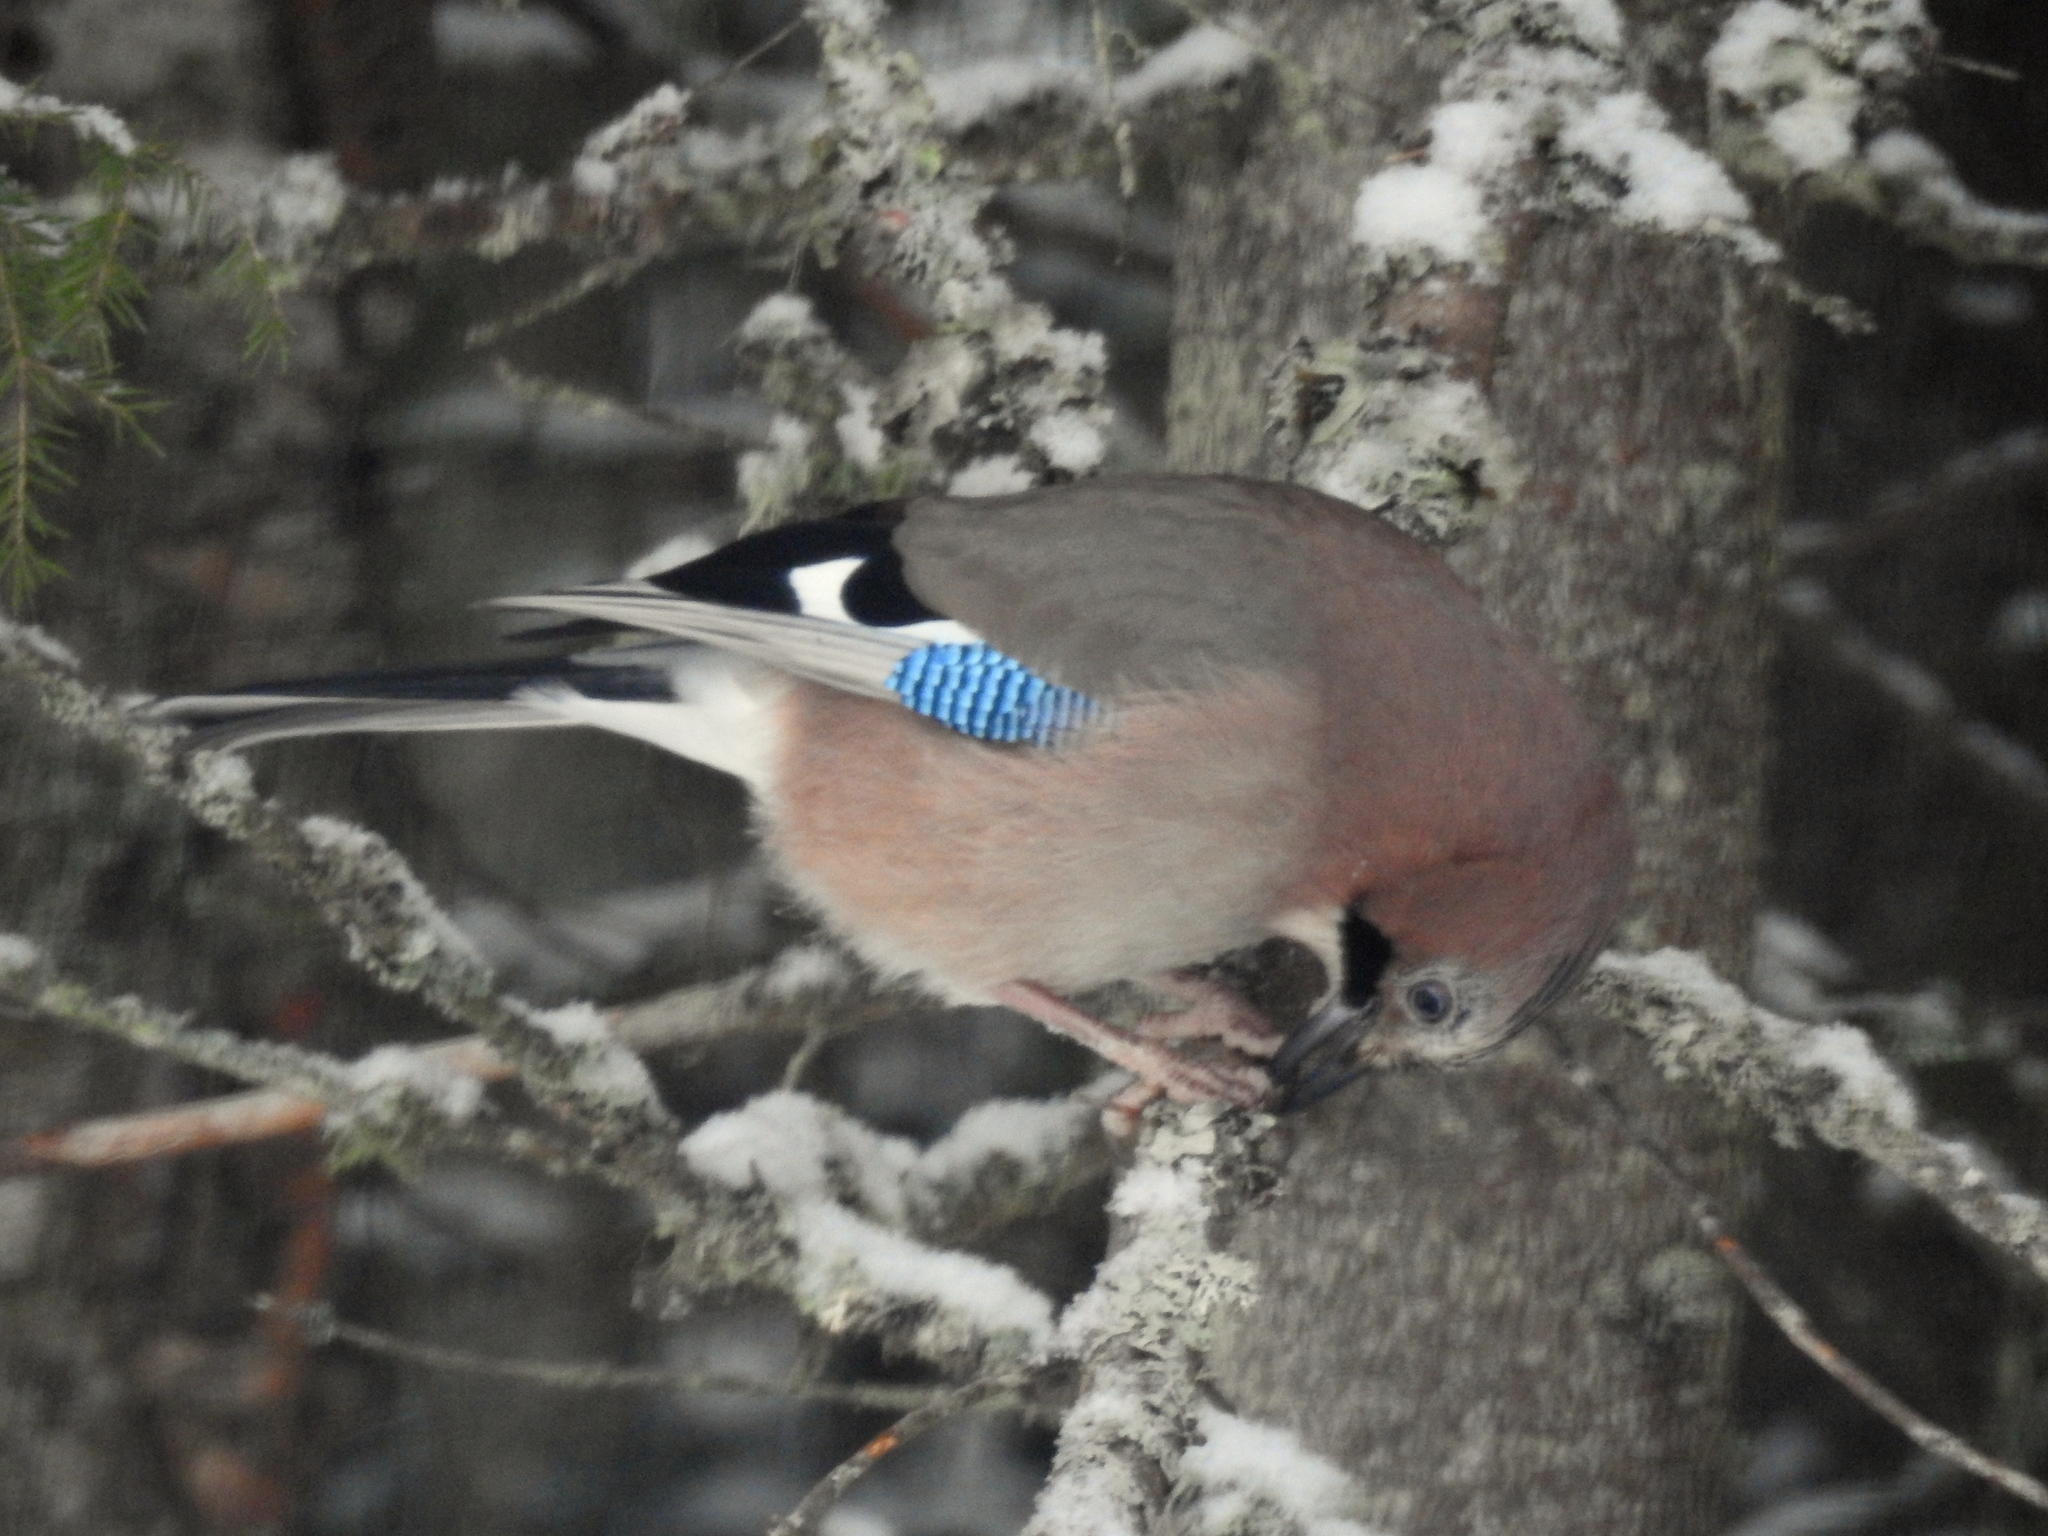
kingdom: Animalia
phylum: Chordata
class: Aves
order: Passeriformes
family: Corvidae
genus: Garrulus
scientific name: Garrulus glandarius
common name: Eurasian jay
